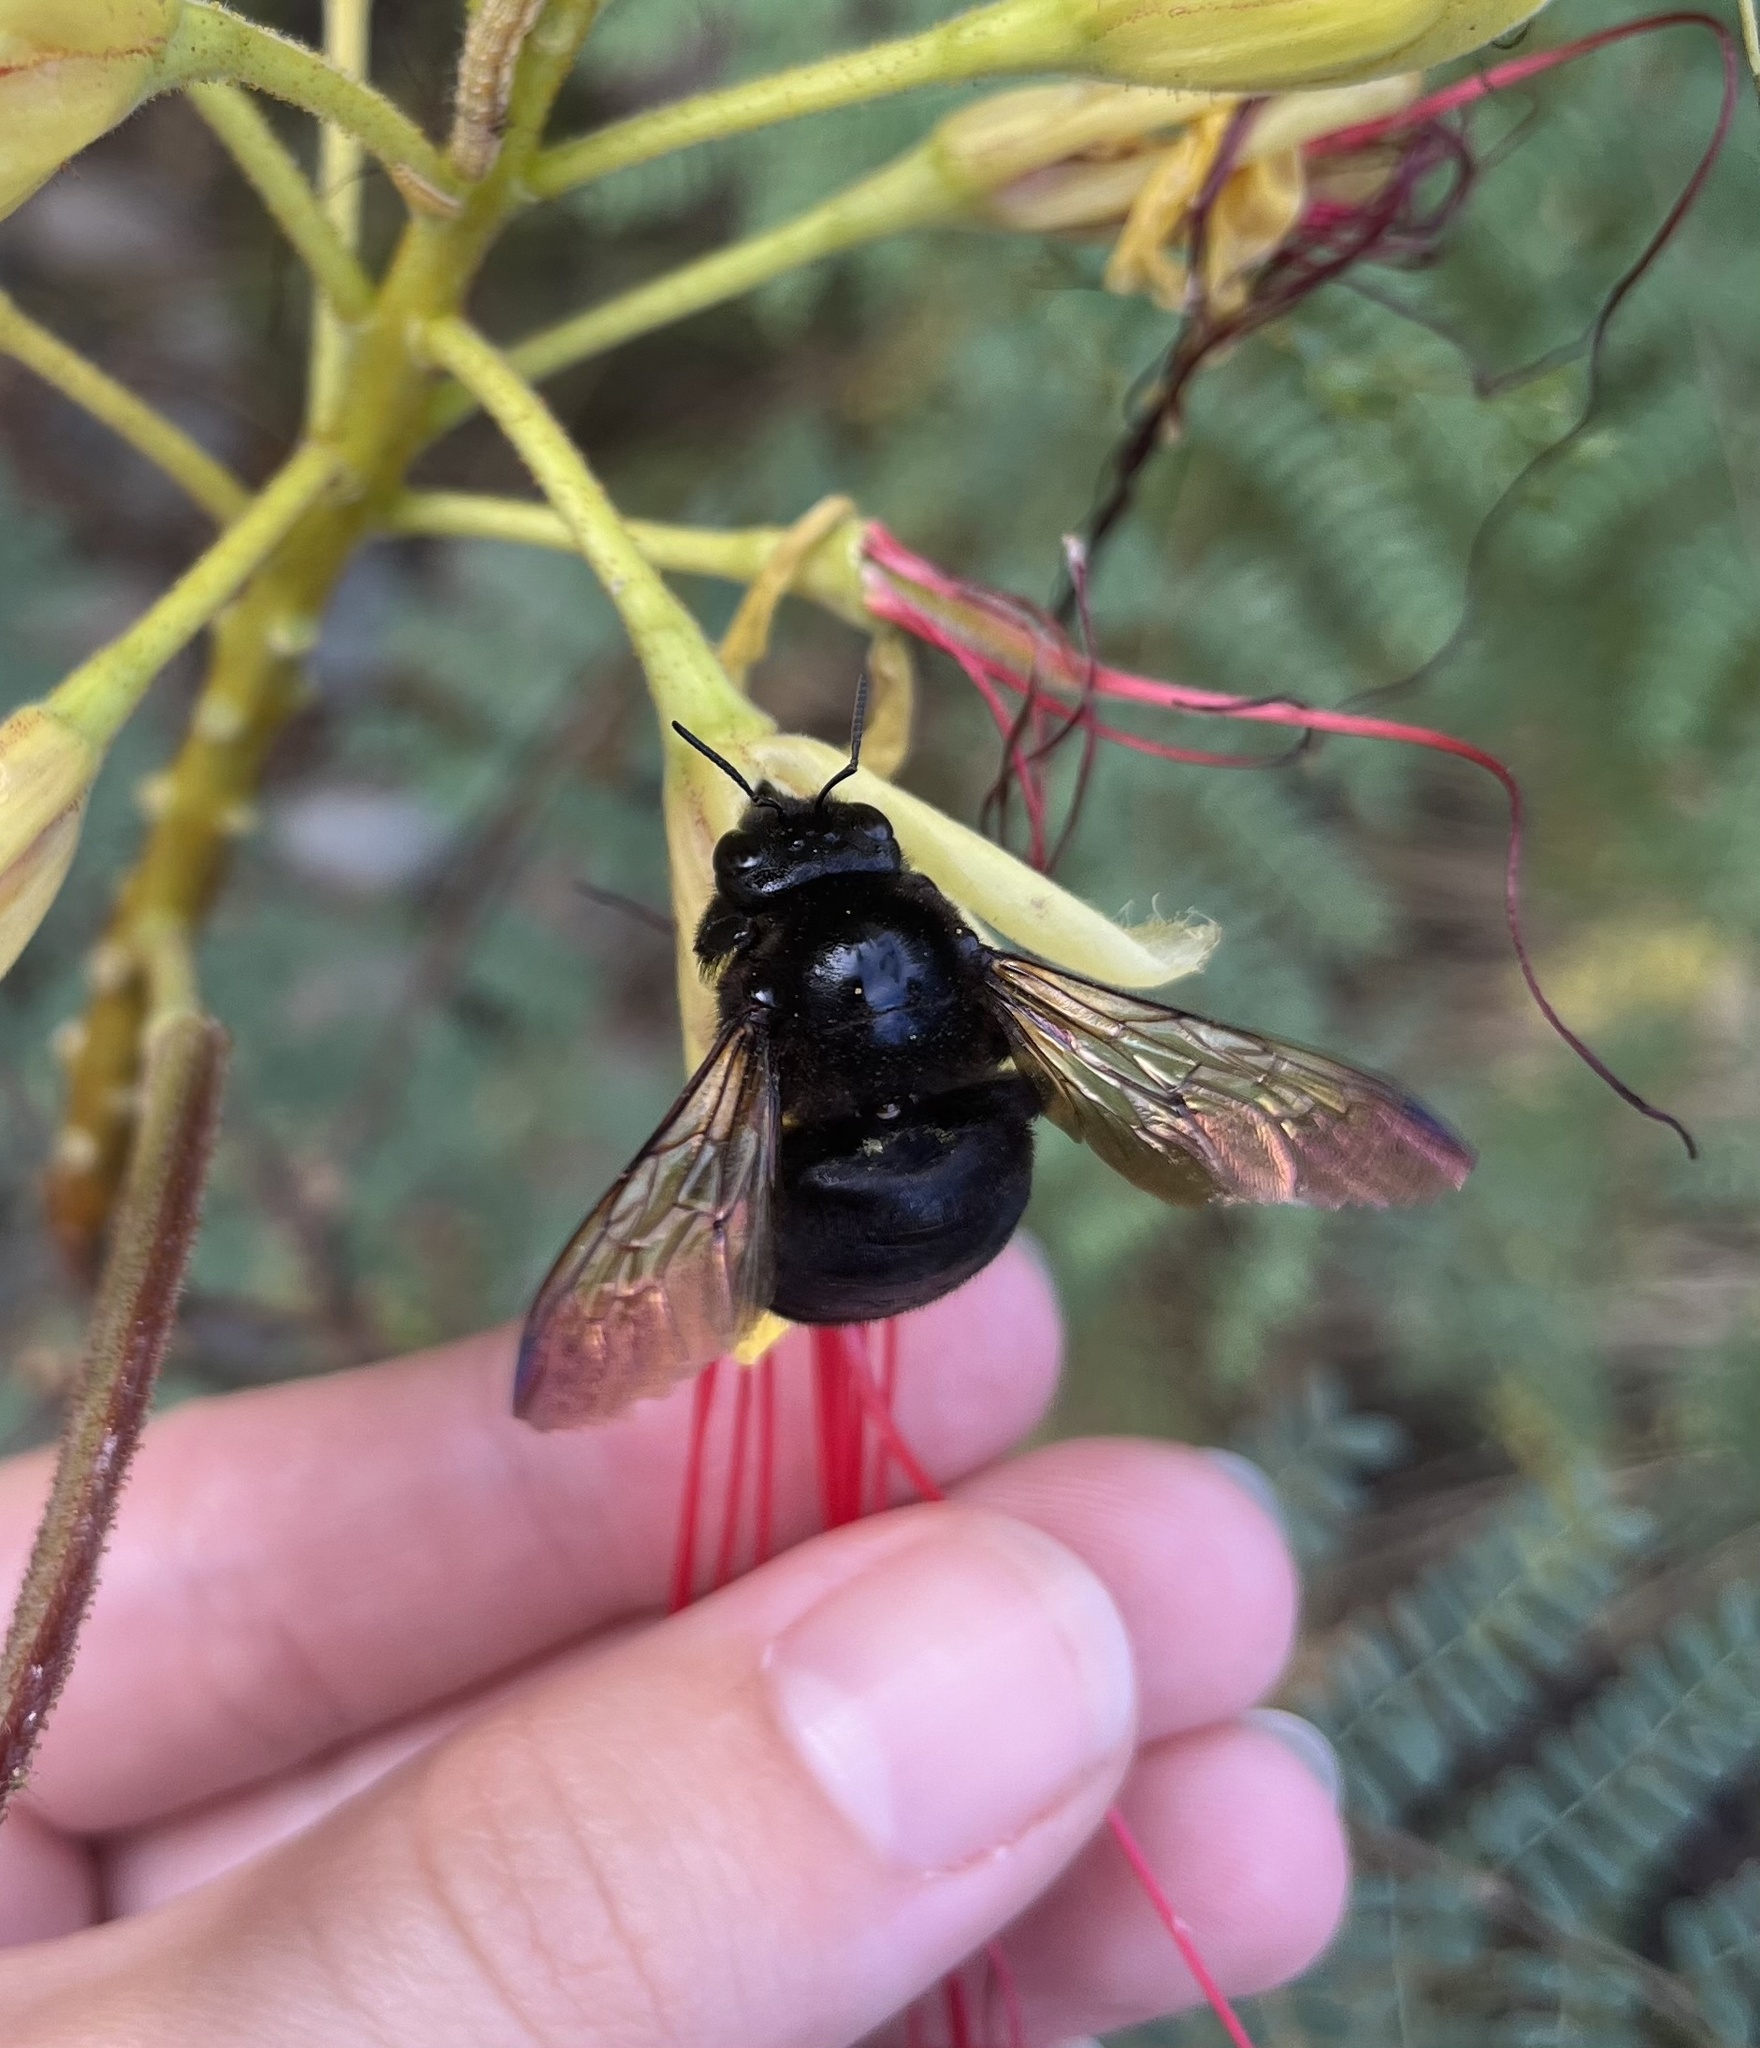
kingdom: Animalia
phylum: Arthropoda
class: Insecta
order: Hymenoptera
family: Apidae
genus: Xylocopa
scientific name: Xylocopa sonorina
